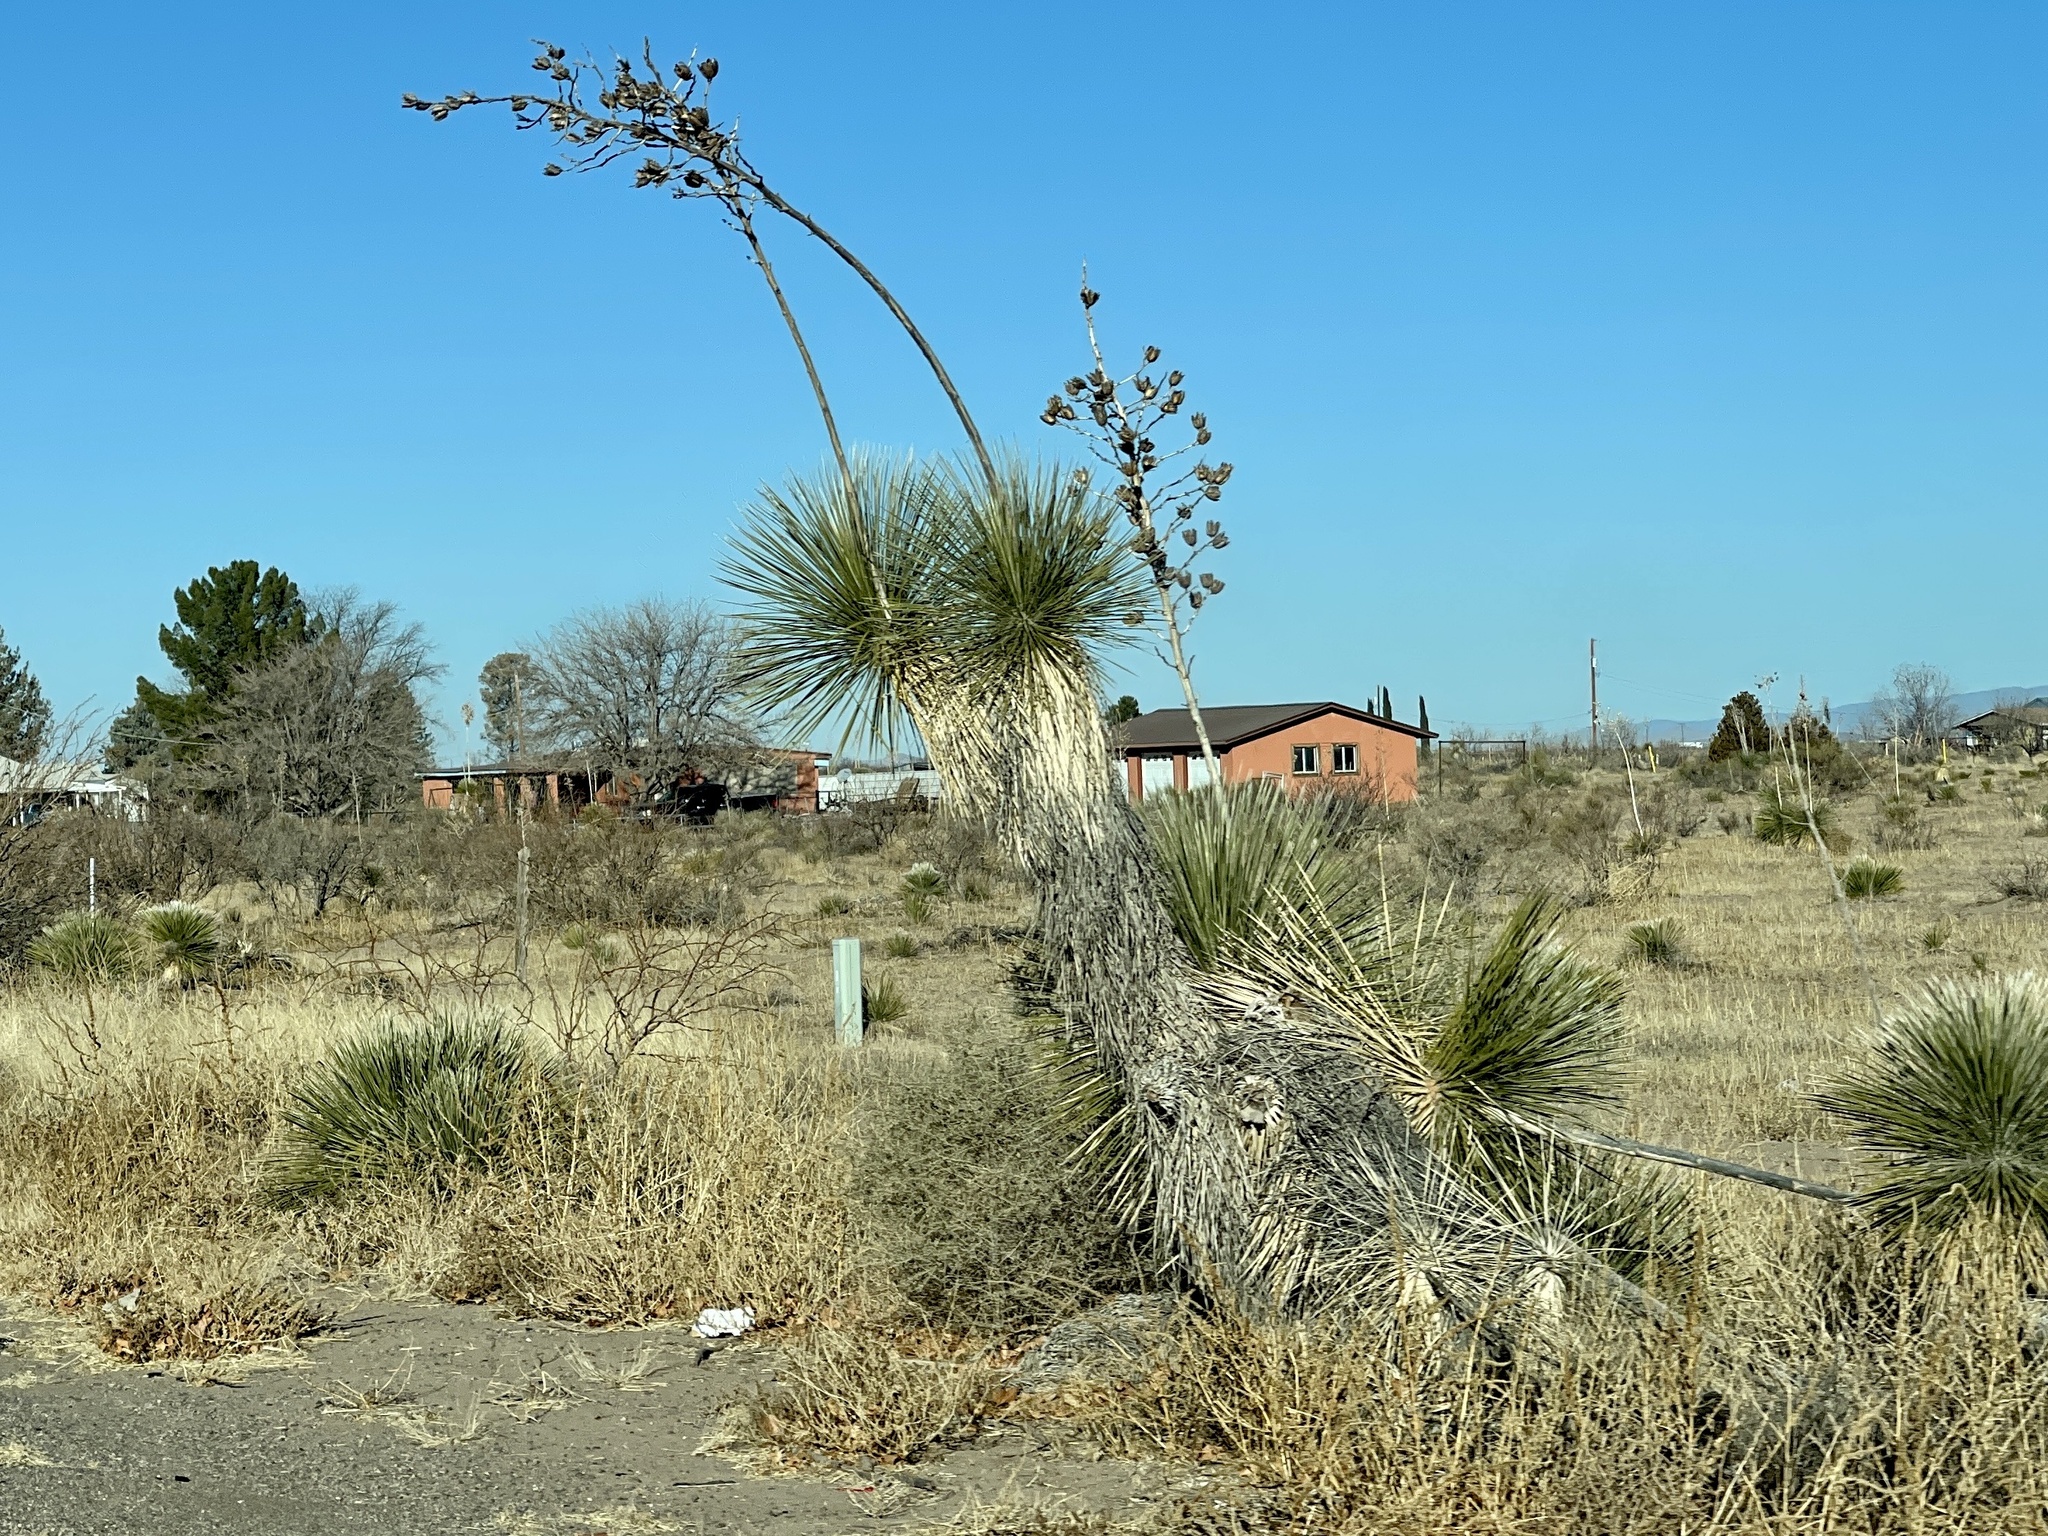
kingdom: Plantae
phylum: Tracheophyta
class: Liliopsida
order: Asparagales
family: Asparagaceae
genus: Yucca
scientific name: Yucca elata
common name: Palmella
